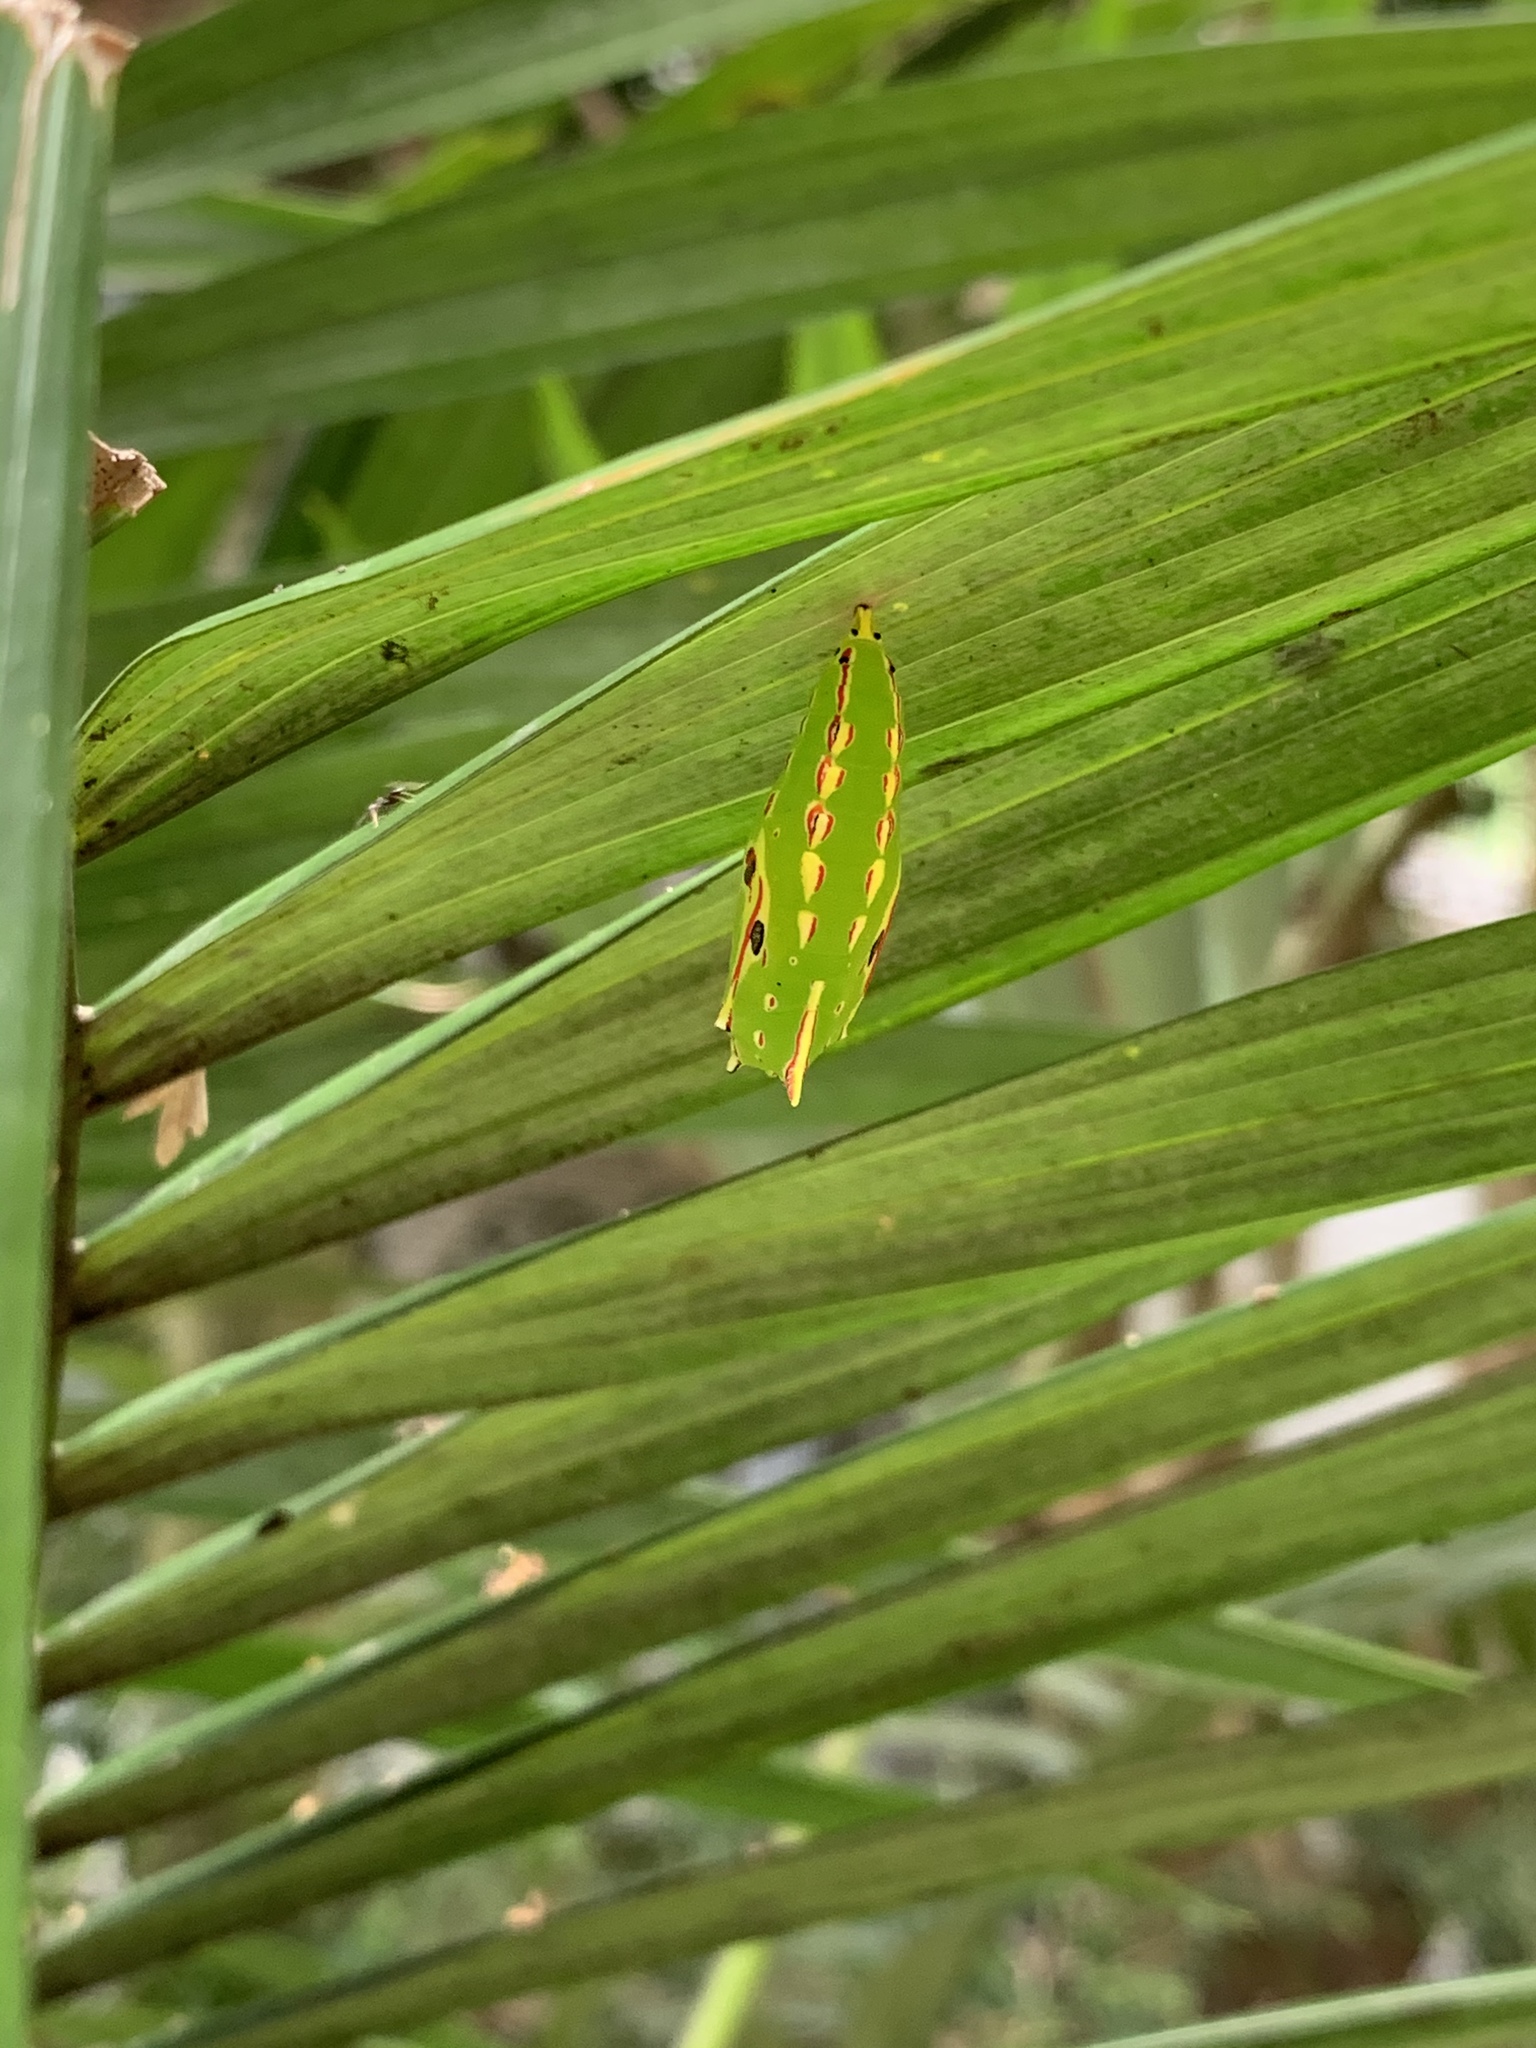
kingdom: Animalia
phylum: Arthropoda
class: Insecta
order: Lepidoptera
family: Nymphalidae
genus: Elymnias
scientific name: Elymnias hypermnestra
